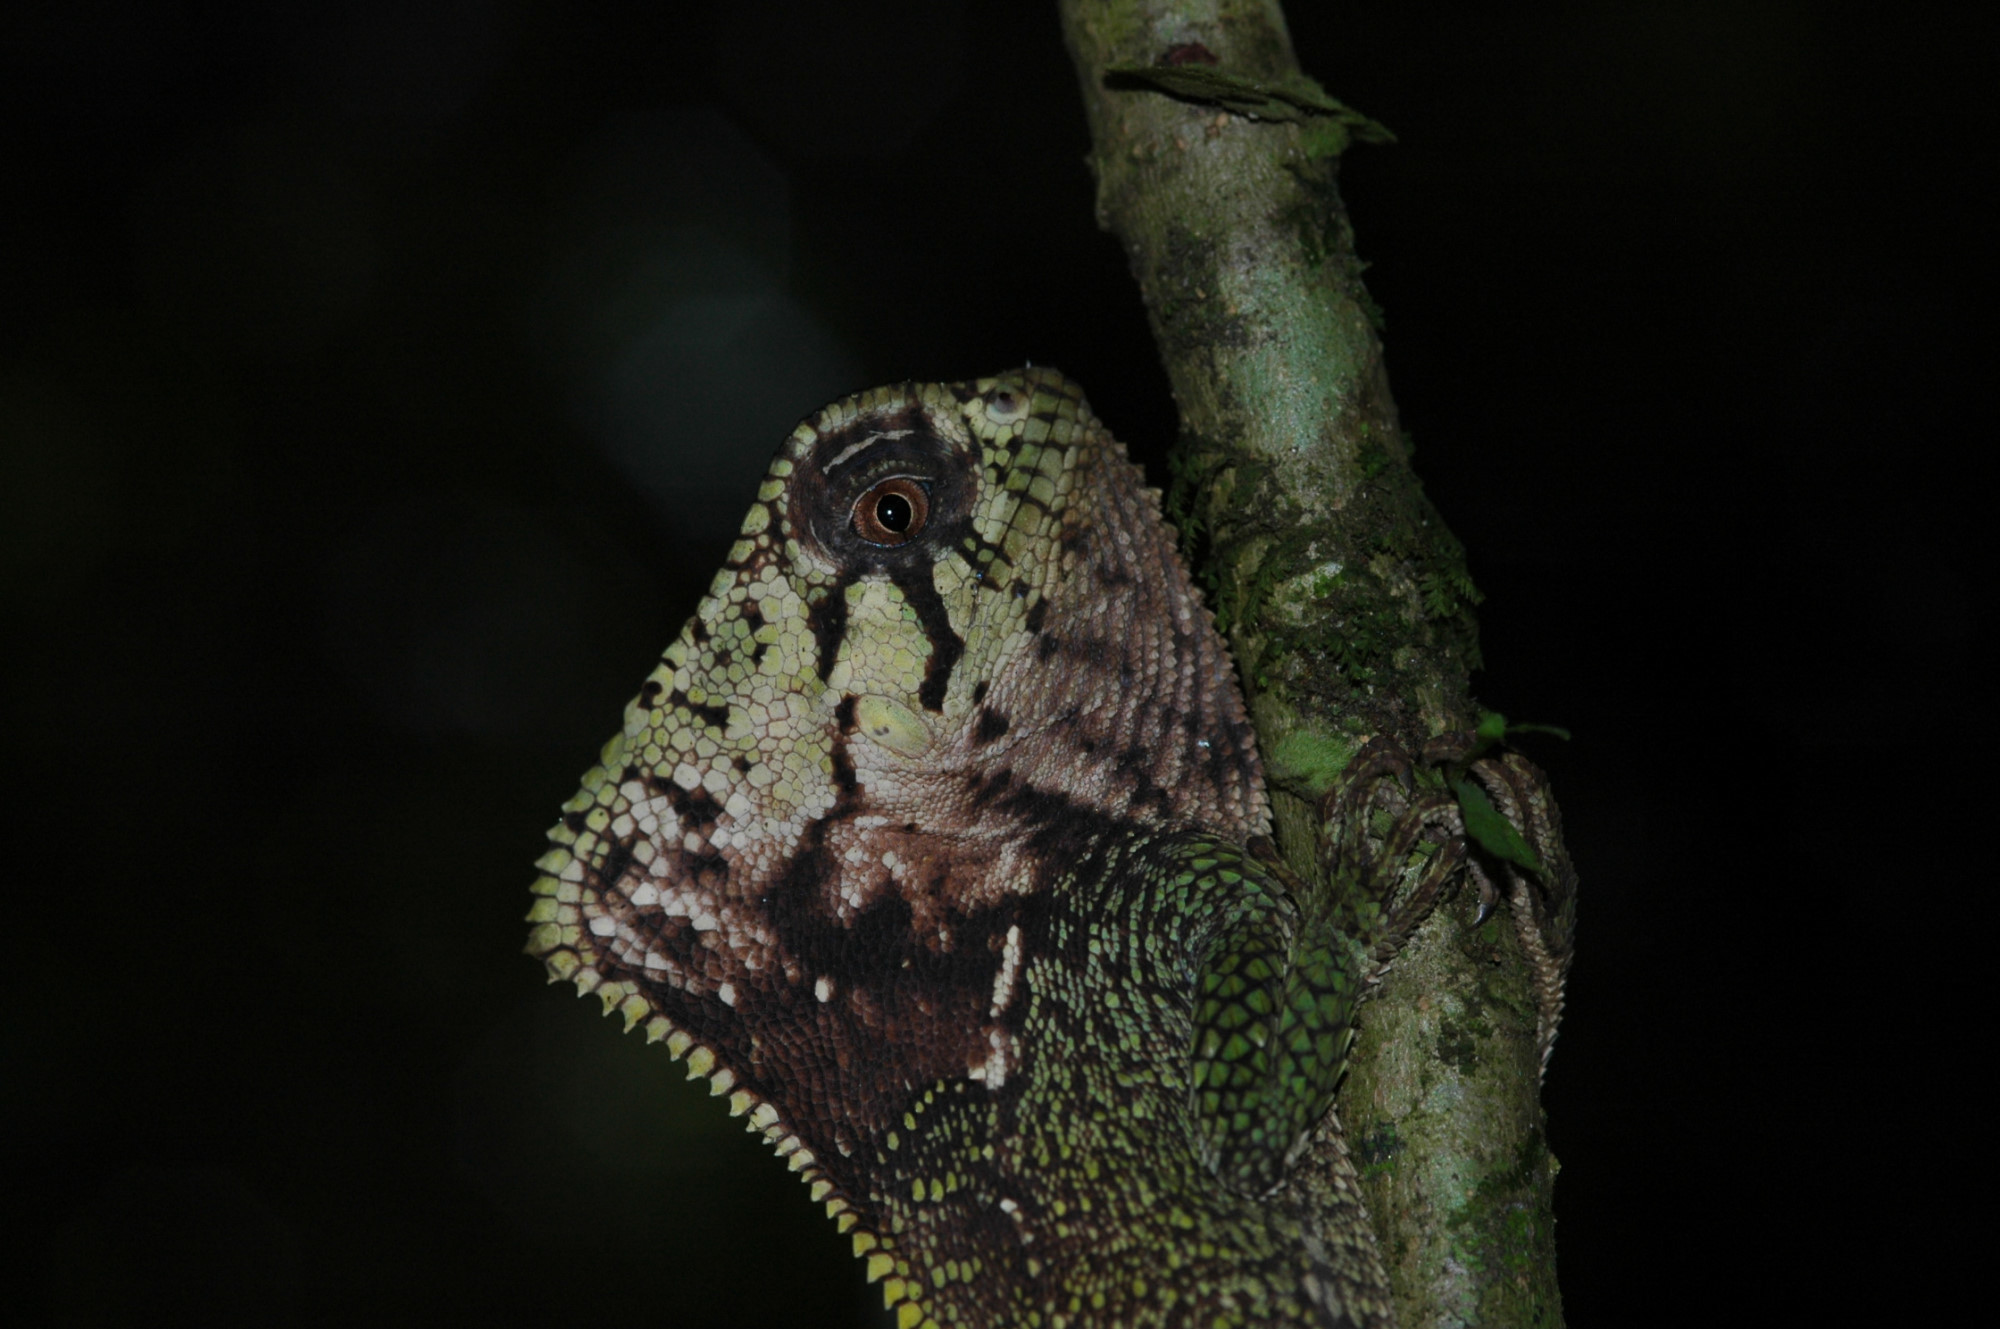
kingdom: Animalia
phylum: Chordata
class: Squamata
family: Corytophanidae
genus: Corytophanes
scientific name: Corytophanes cristatus
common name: Smooth helmeted iguana
